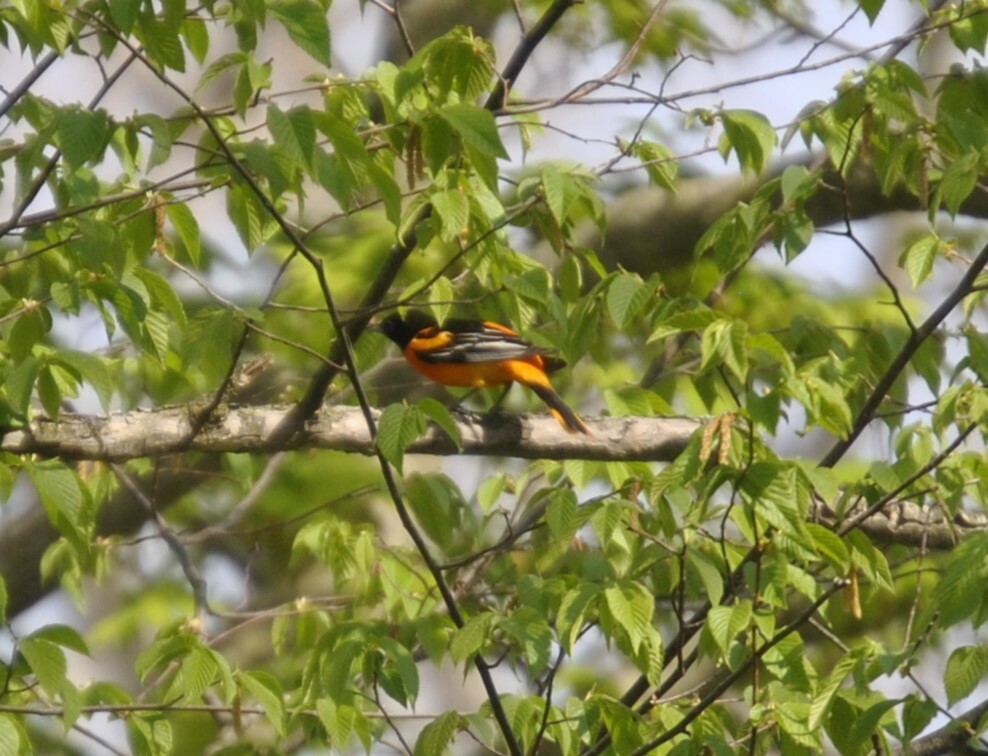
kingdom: Animalia
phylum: Chordata
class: Aves
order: Passeriformes
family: Icteridae
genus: Icterus
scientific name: Icterus galbula
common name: Baltimore oriole
